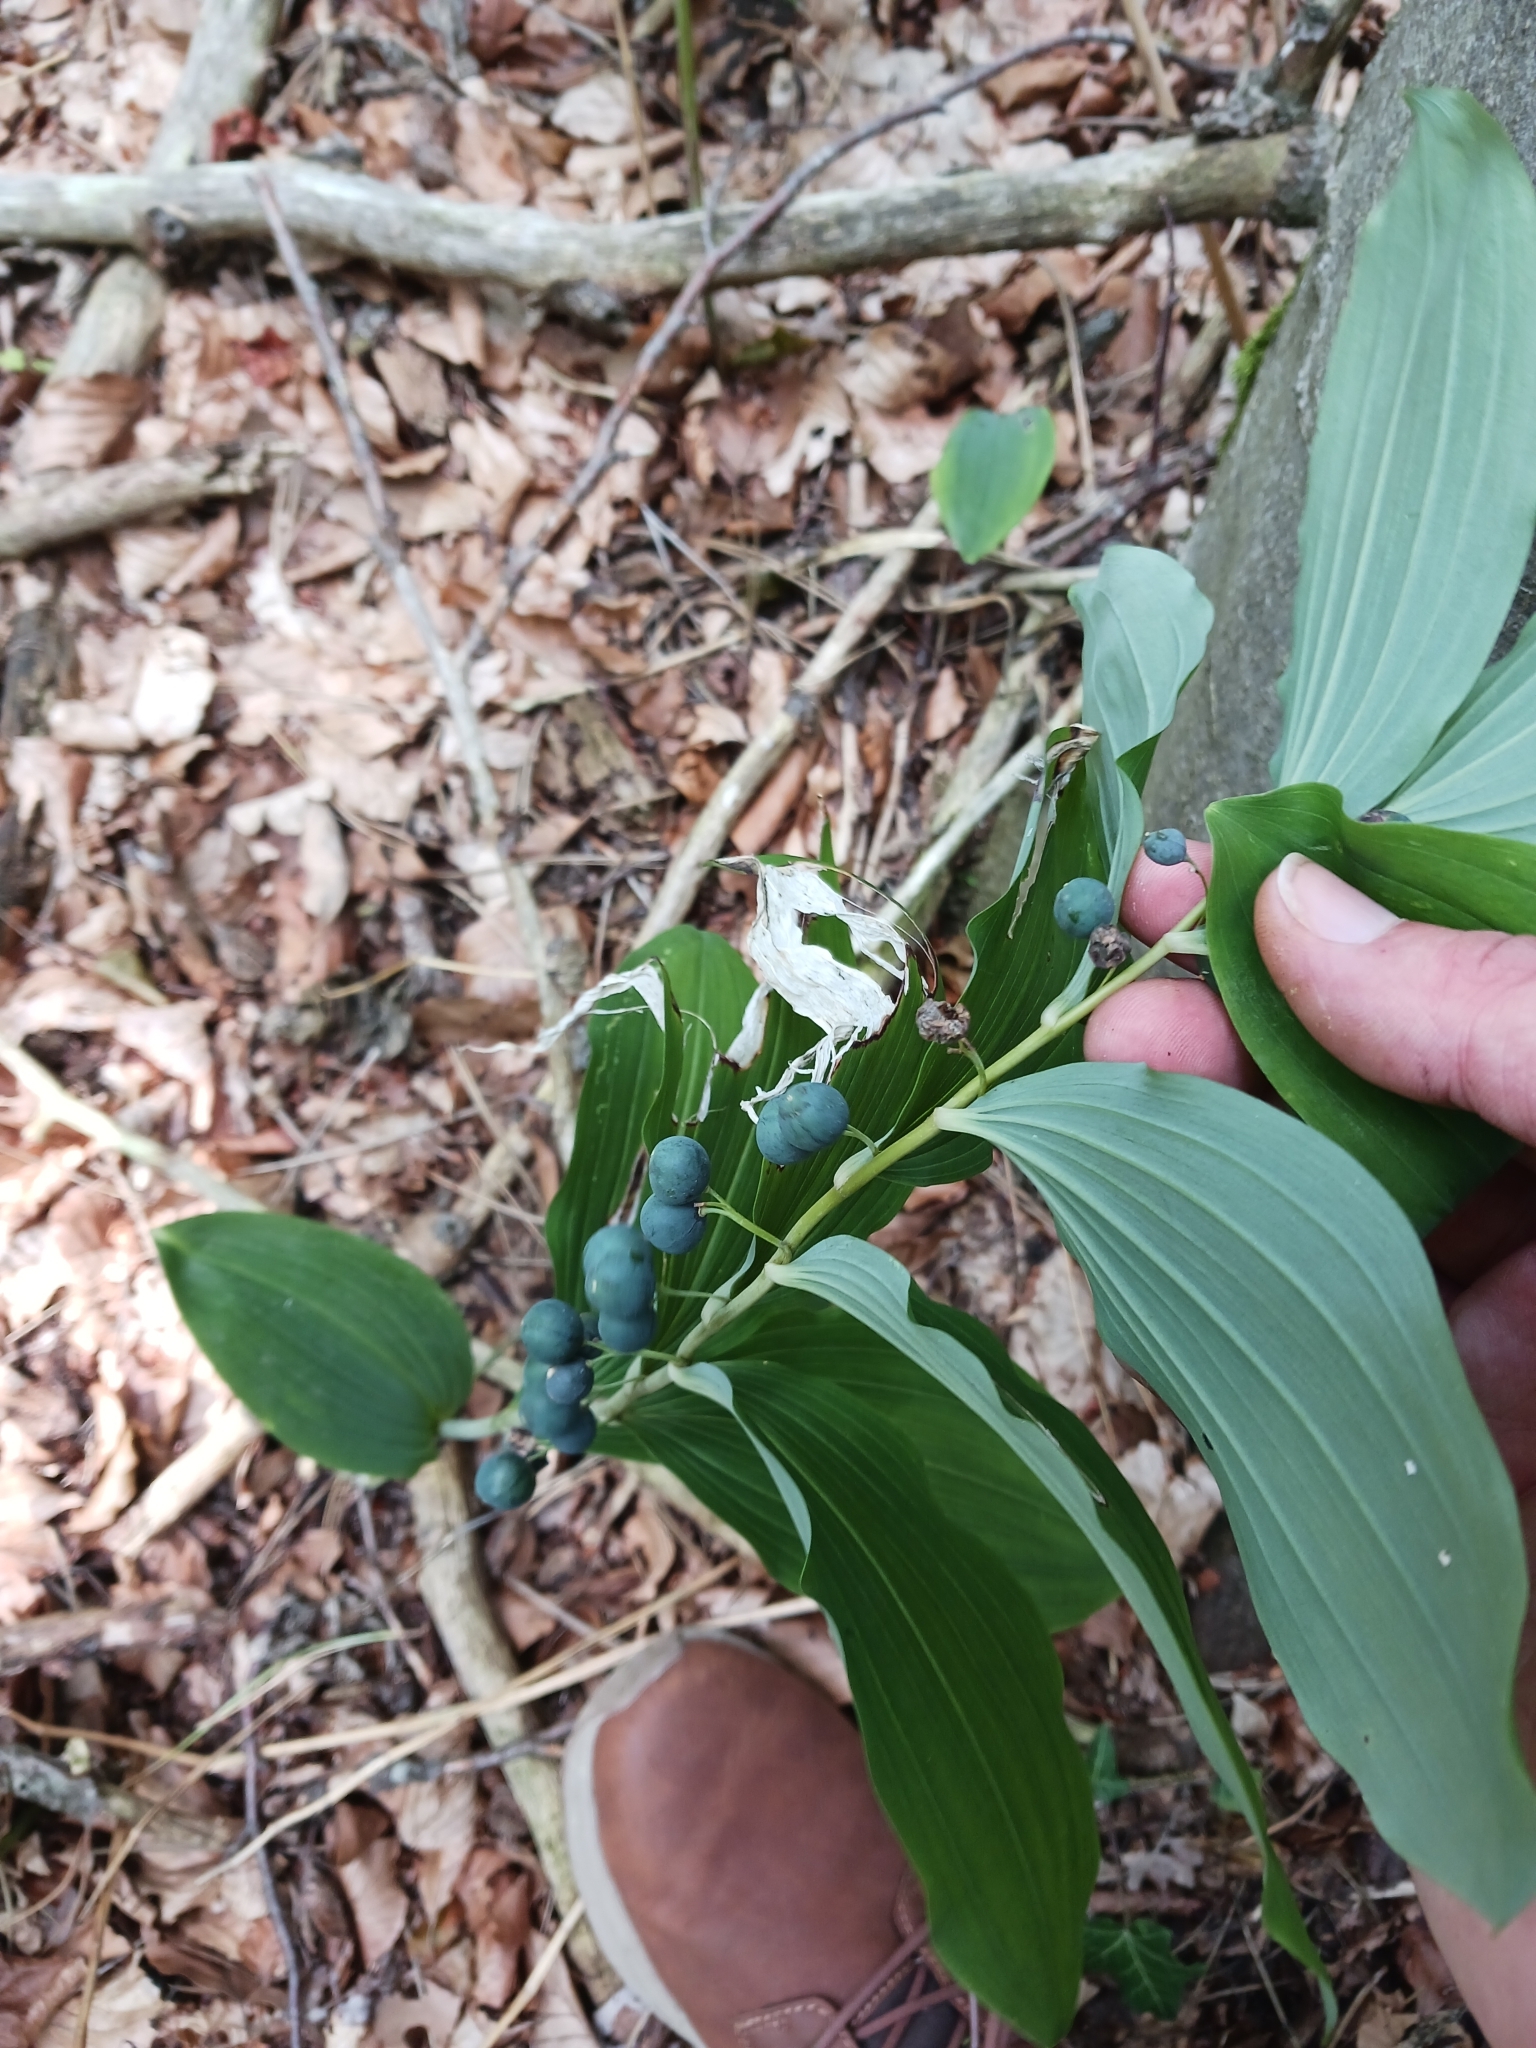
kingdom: Plantae
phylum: Tracheophyta
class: Liliopsida
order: Asparagales
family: Asparagaceae
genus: Polygonatum
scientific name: Polygonatum multiflorum
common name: Solomon's-seal
